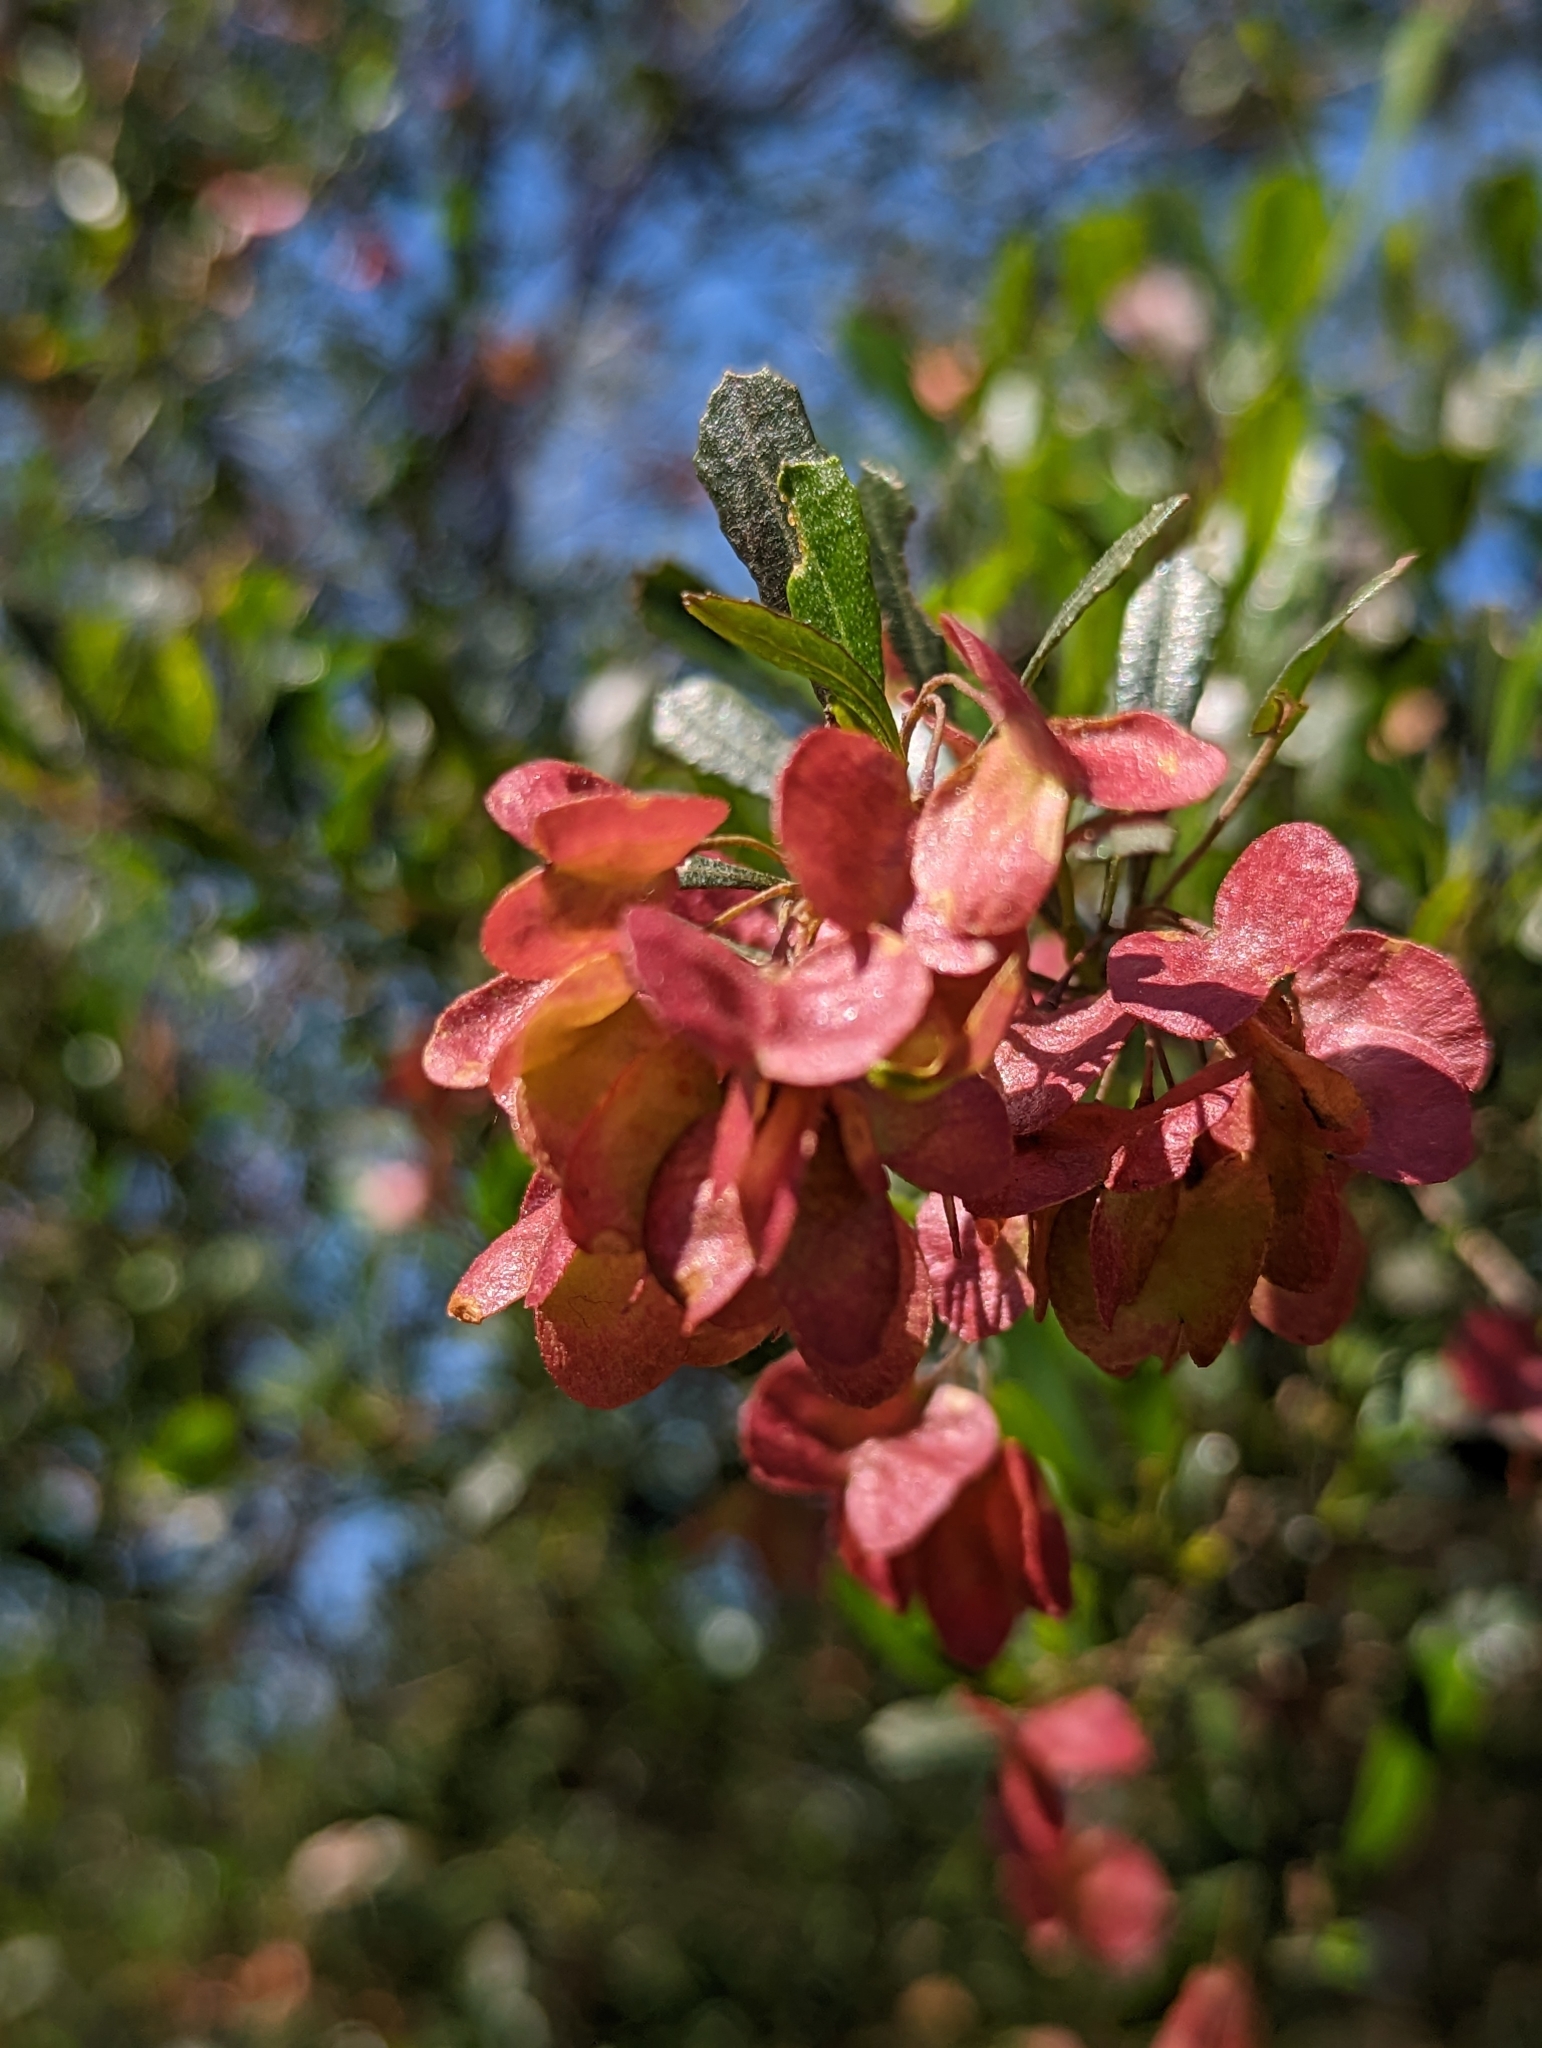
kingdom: Plantae
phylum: Tracheophyta
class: Magnoliopsida
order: Sapindales
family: Sapindaceae
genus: Dodonaea
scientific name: Dodonaea viscosa
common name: Hopbush
